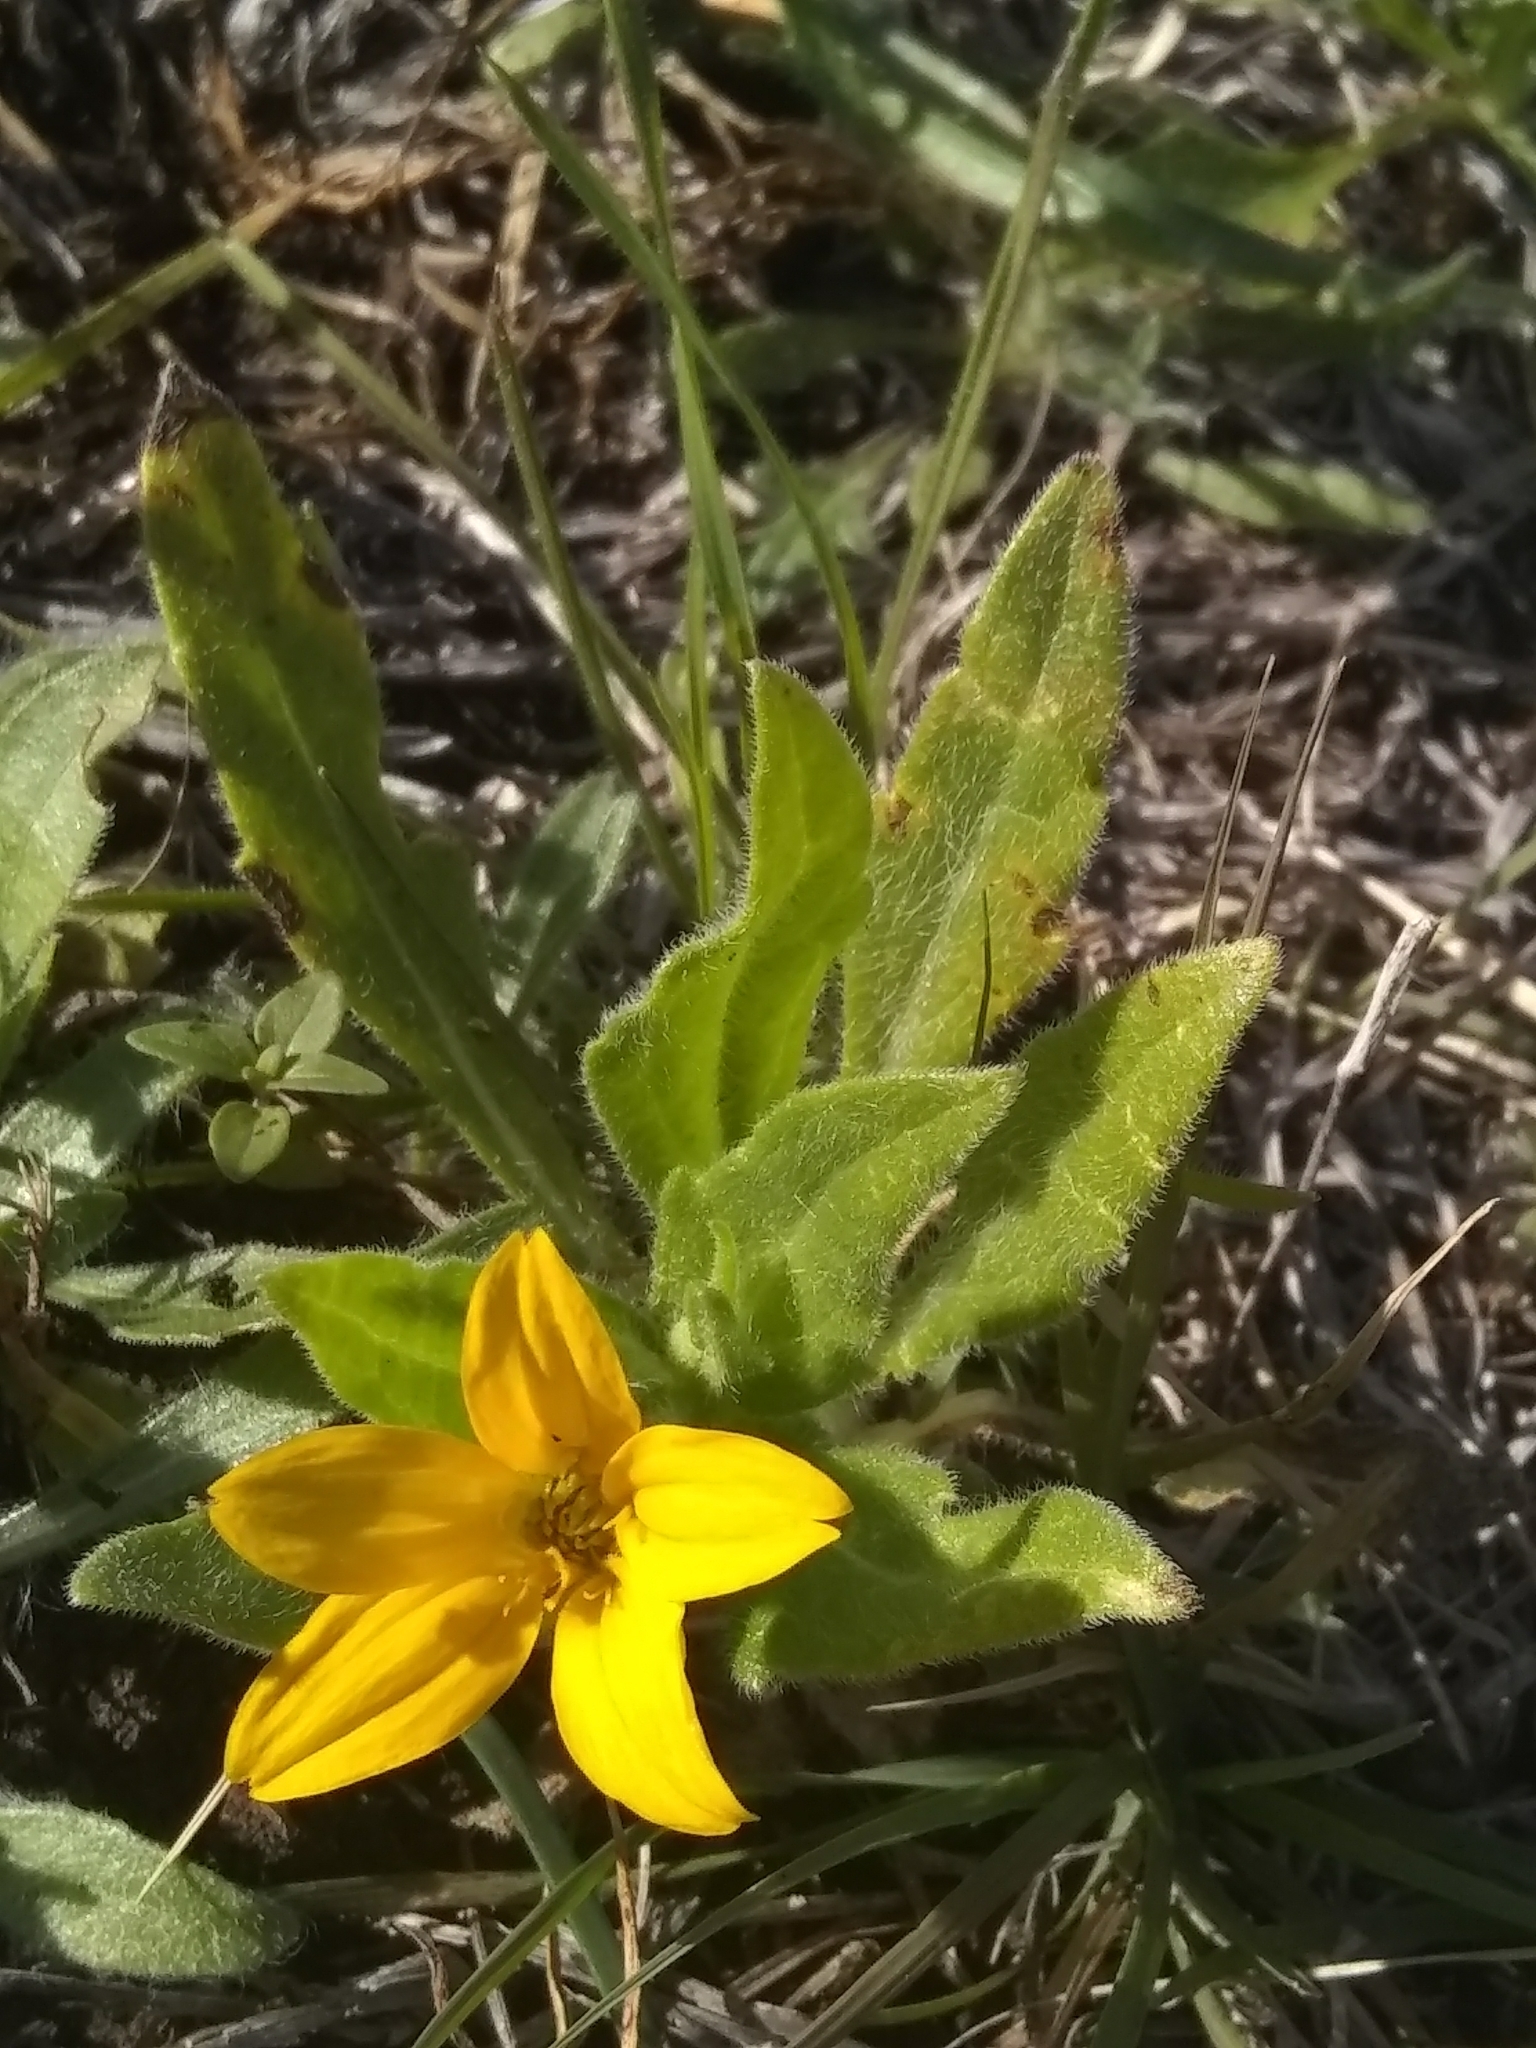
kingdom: Plantae
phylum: Tracheophyta
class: Magnoliopsida
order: Asterales
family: Asteraceae
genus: Lindheimera
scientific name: Lindheimera texana
